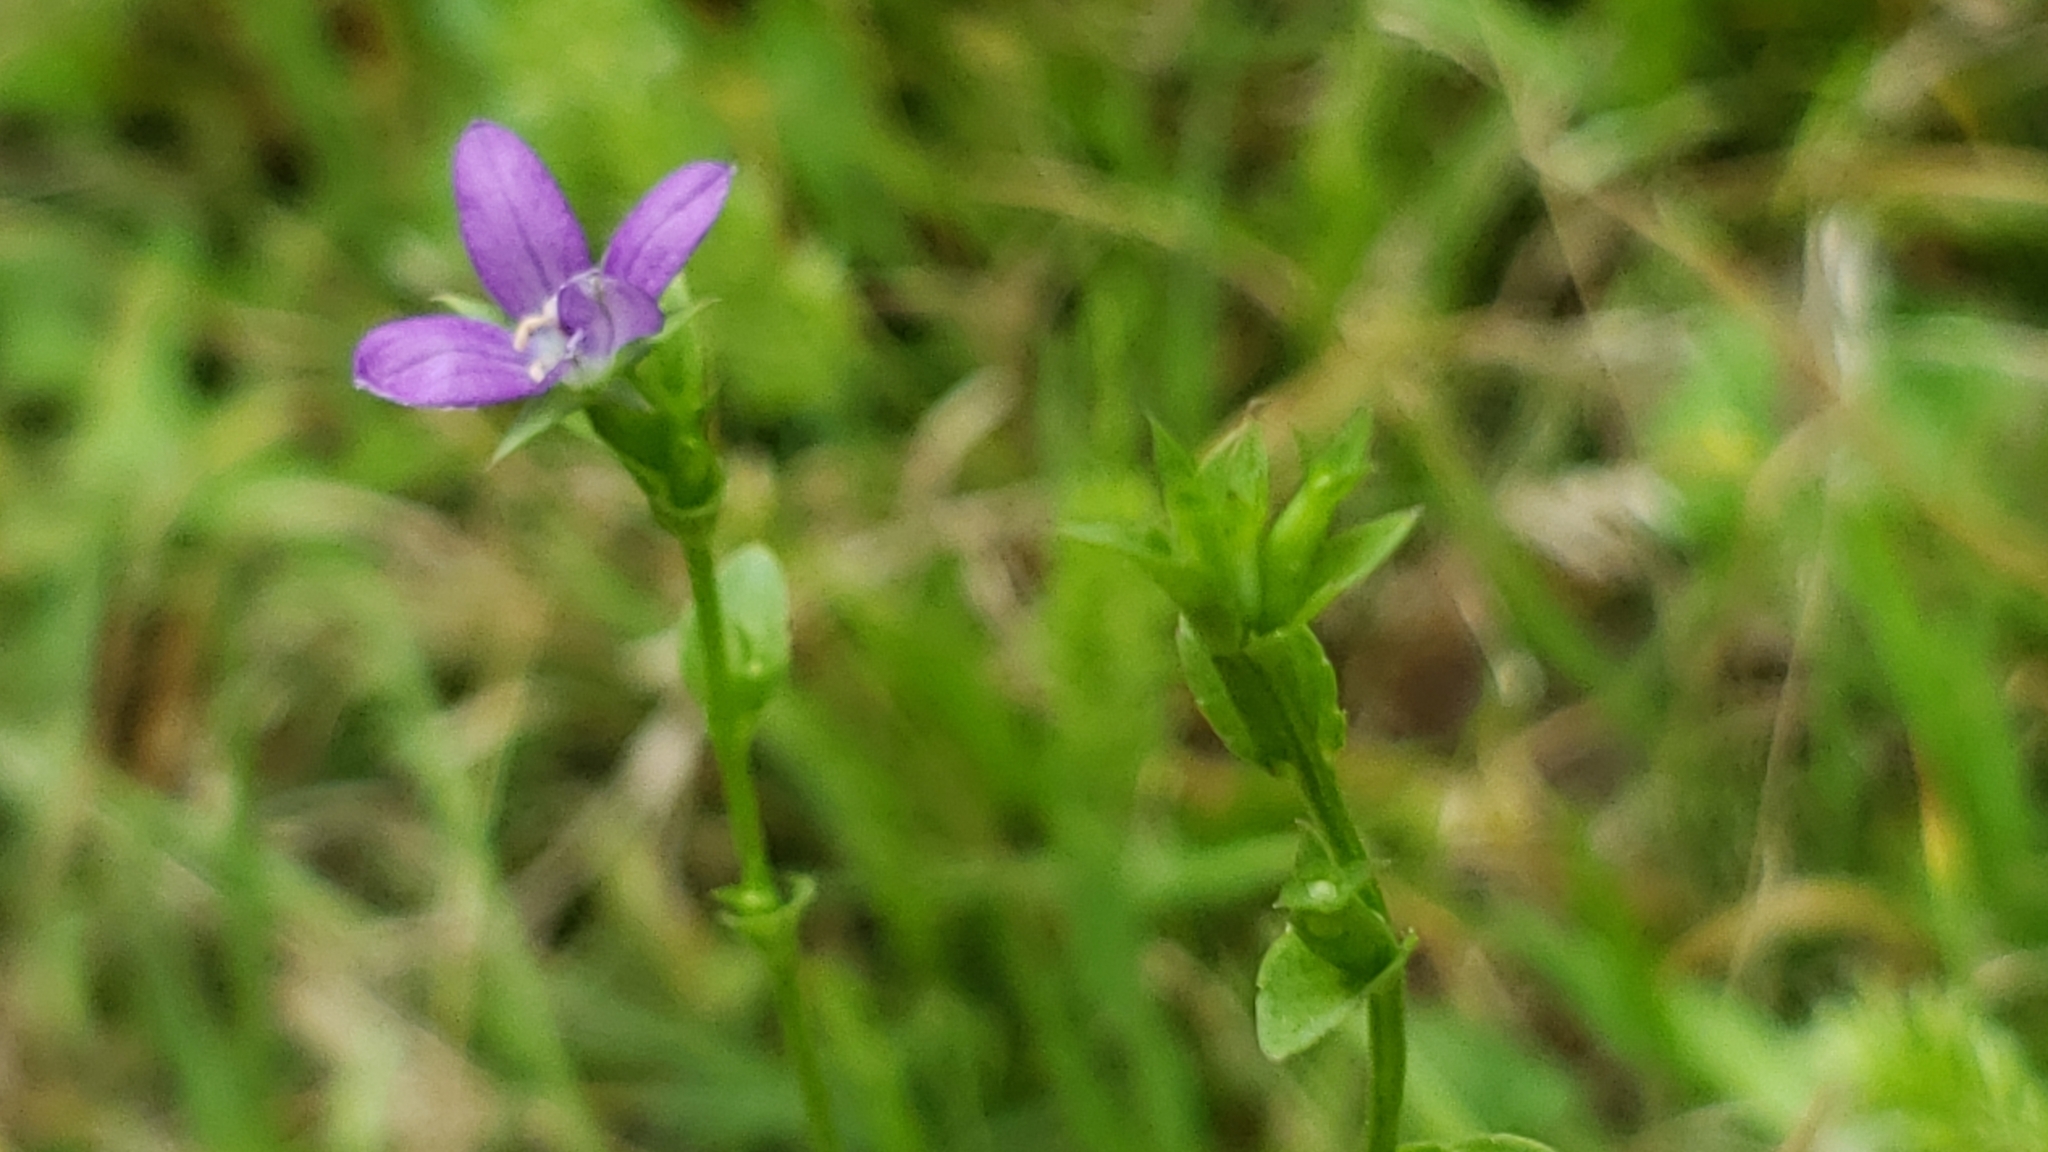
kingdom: Plantae
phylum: Tracheophyta
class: Magnoliopsida
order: Asterales
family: Campanulaceae
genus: Triodanis
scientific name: Triodanis biflora
